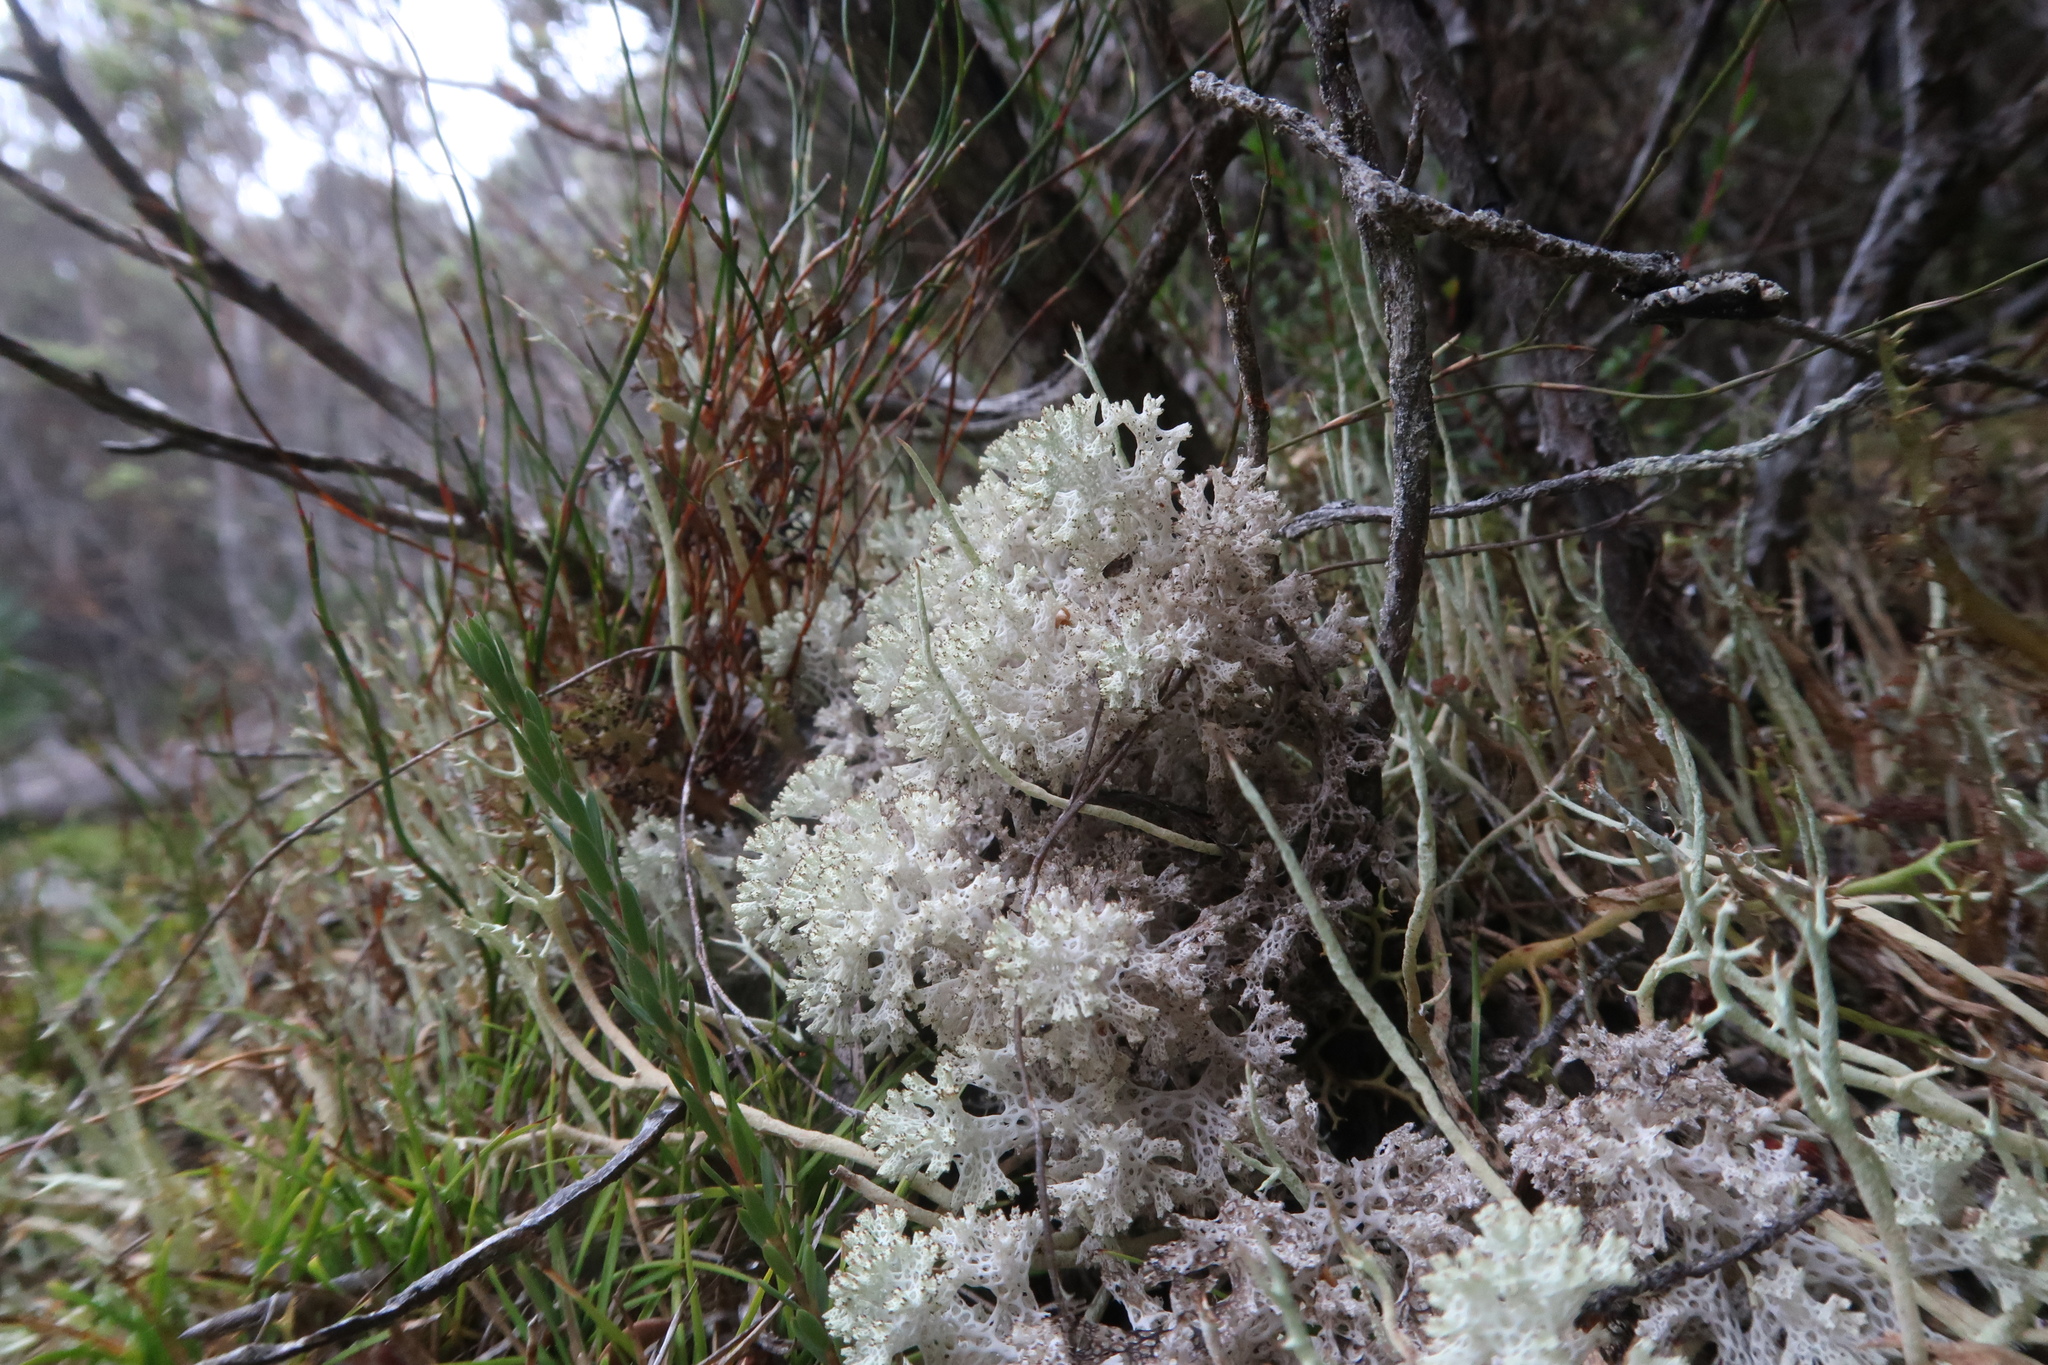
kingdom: Fungi
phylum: Ascomycota
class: Lecanoromycetes
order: Lecanorales
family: Cladoniaceae
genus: Pulchrocladia
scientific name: Pulchrocladia retipora
